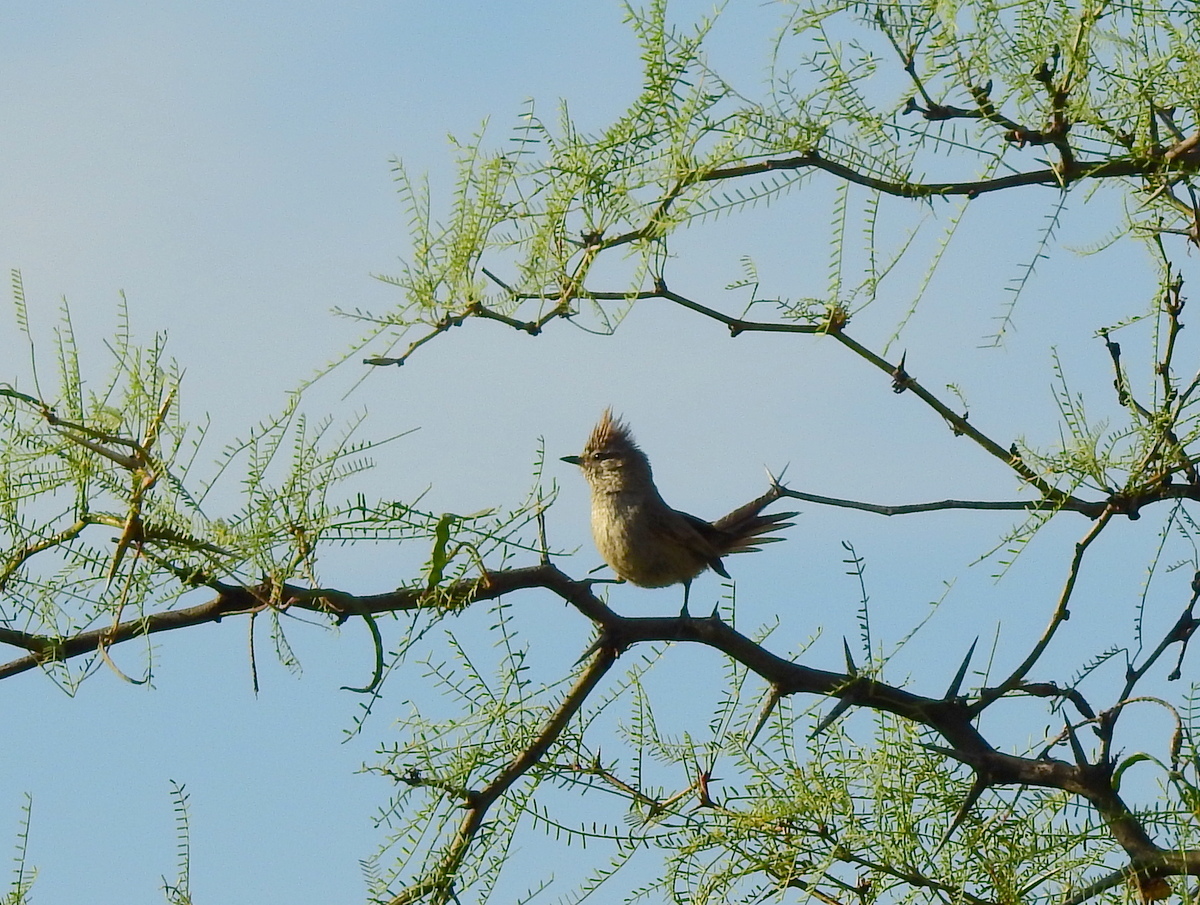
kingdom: Animalia
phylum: Chordata
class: Aves
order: Passeriformes
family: Furnariidae
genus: Leptasthenura
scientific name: Leptasthenura platensis
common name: Tufted tit-spinetail
